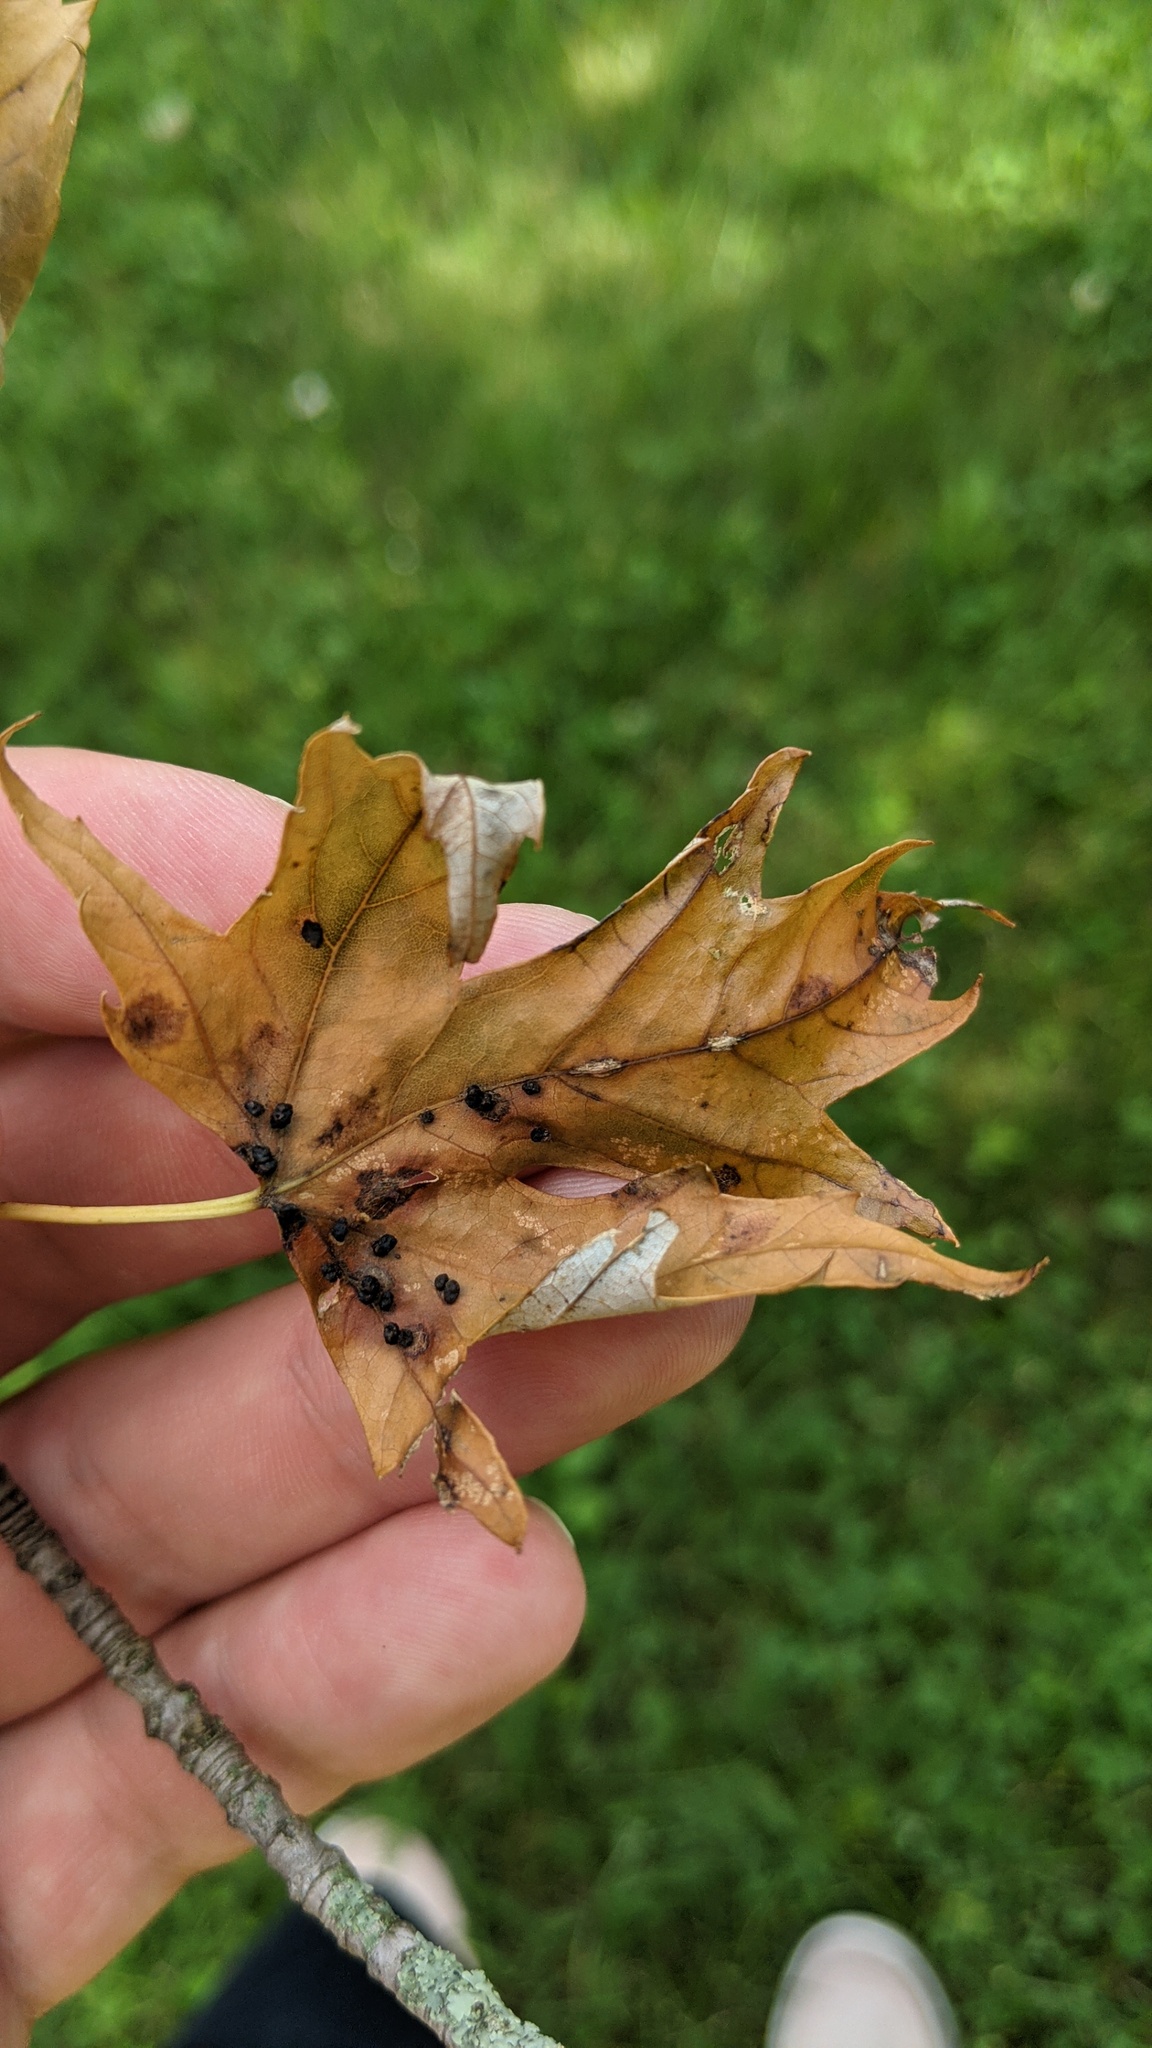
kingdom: Animalia
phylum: Arthropoda
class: Arachnida
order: Trombidiformes
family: Eriophyidae
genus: Vasates
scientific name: Vasates quadripedes
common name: Maple bladder gall mite
